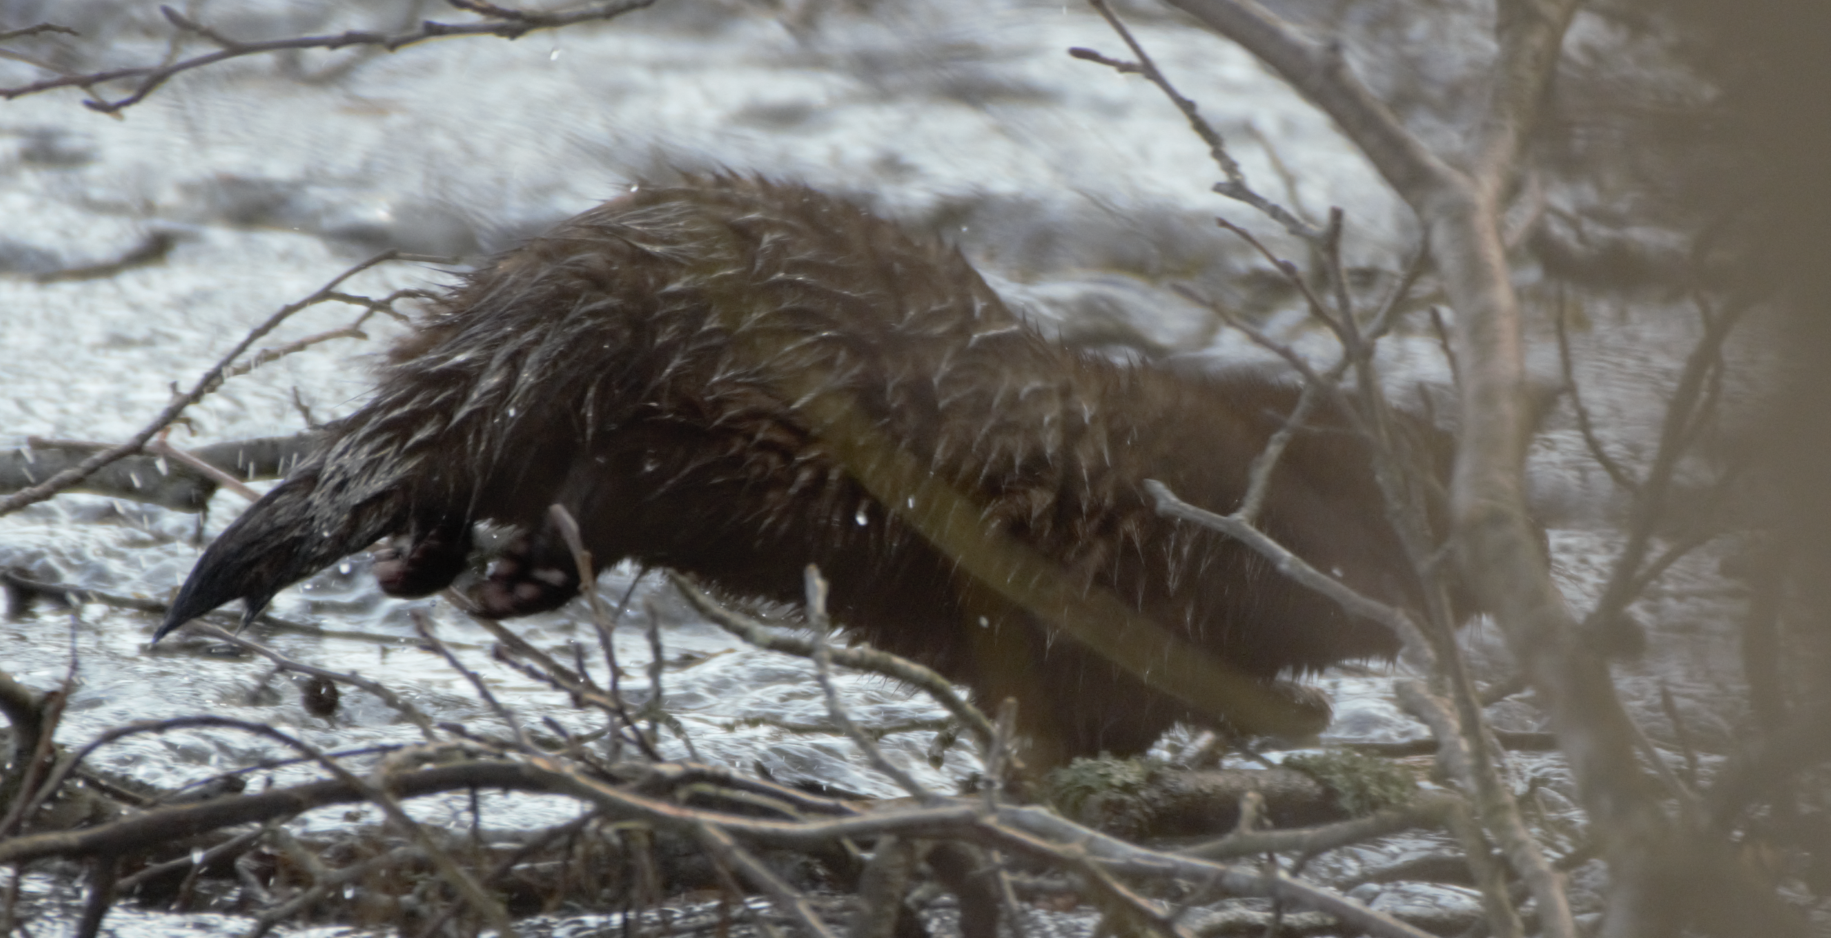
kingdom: Animalia
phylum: Chordata
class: Mammalia
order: Carnivora
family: Mustelidae
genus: Mustela
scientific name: Mustela
